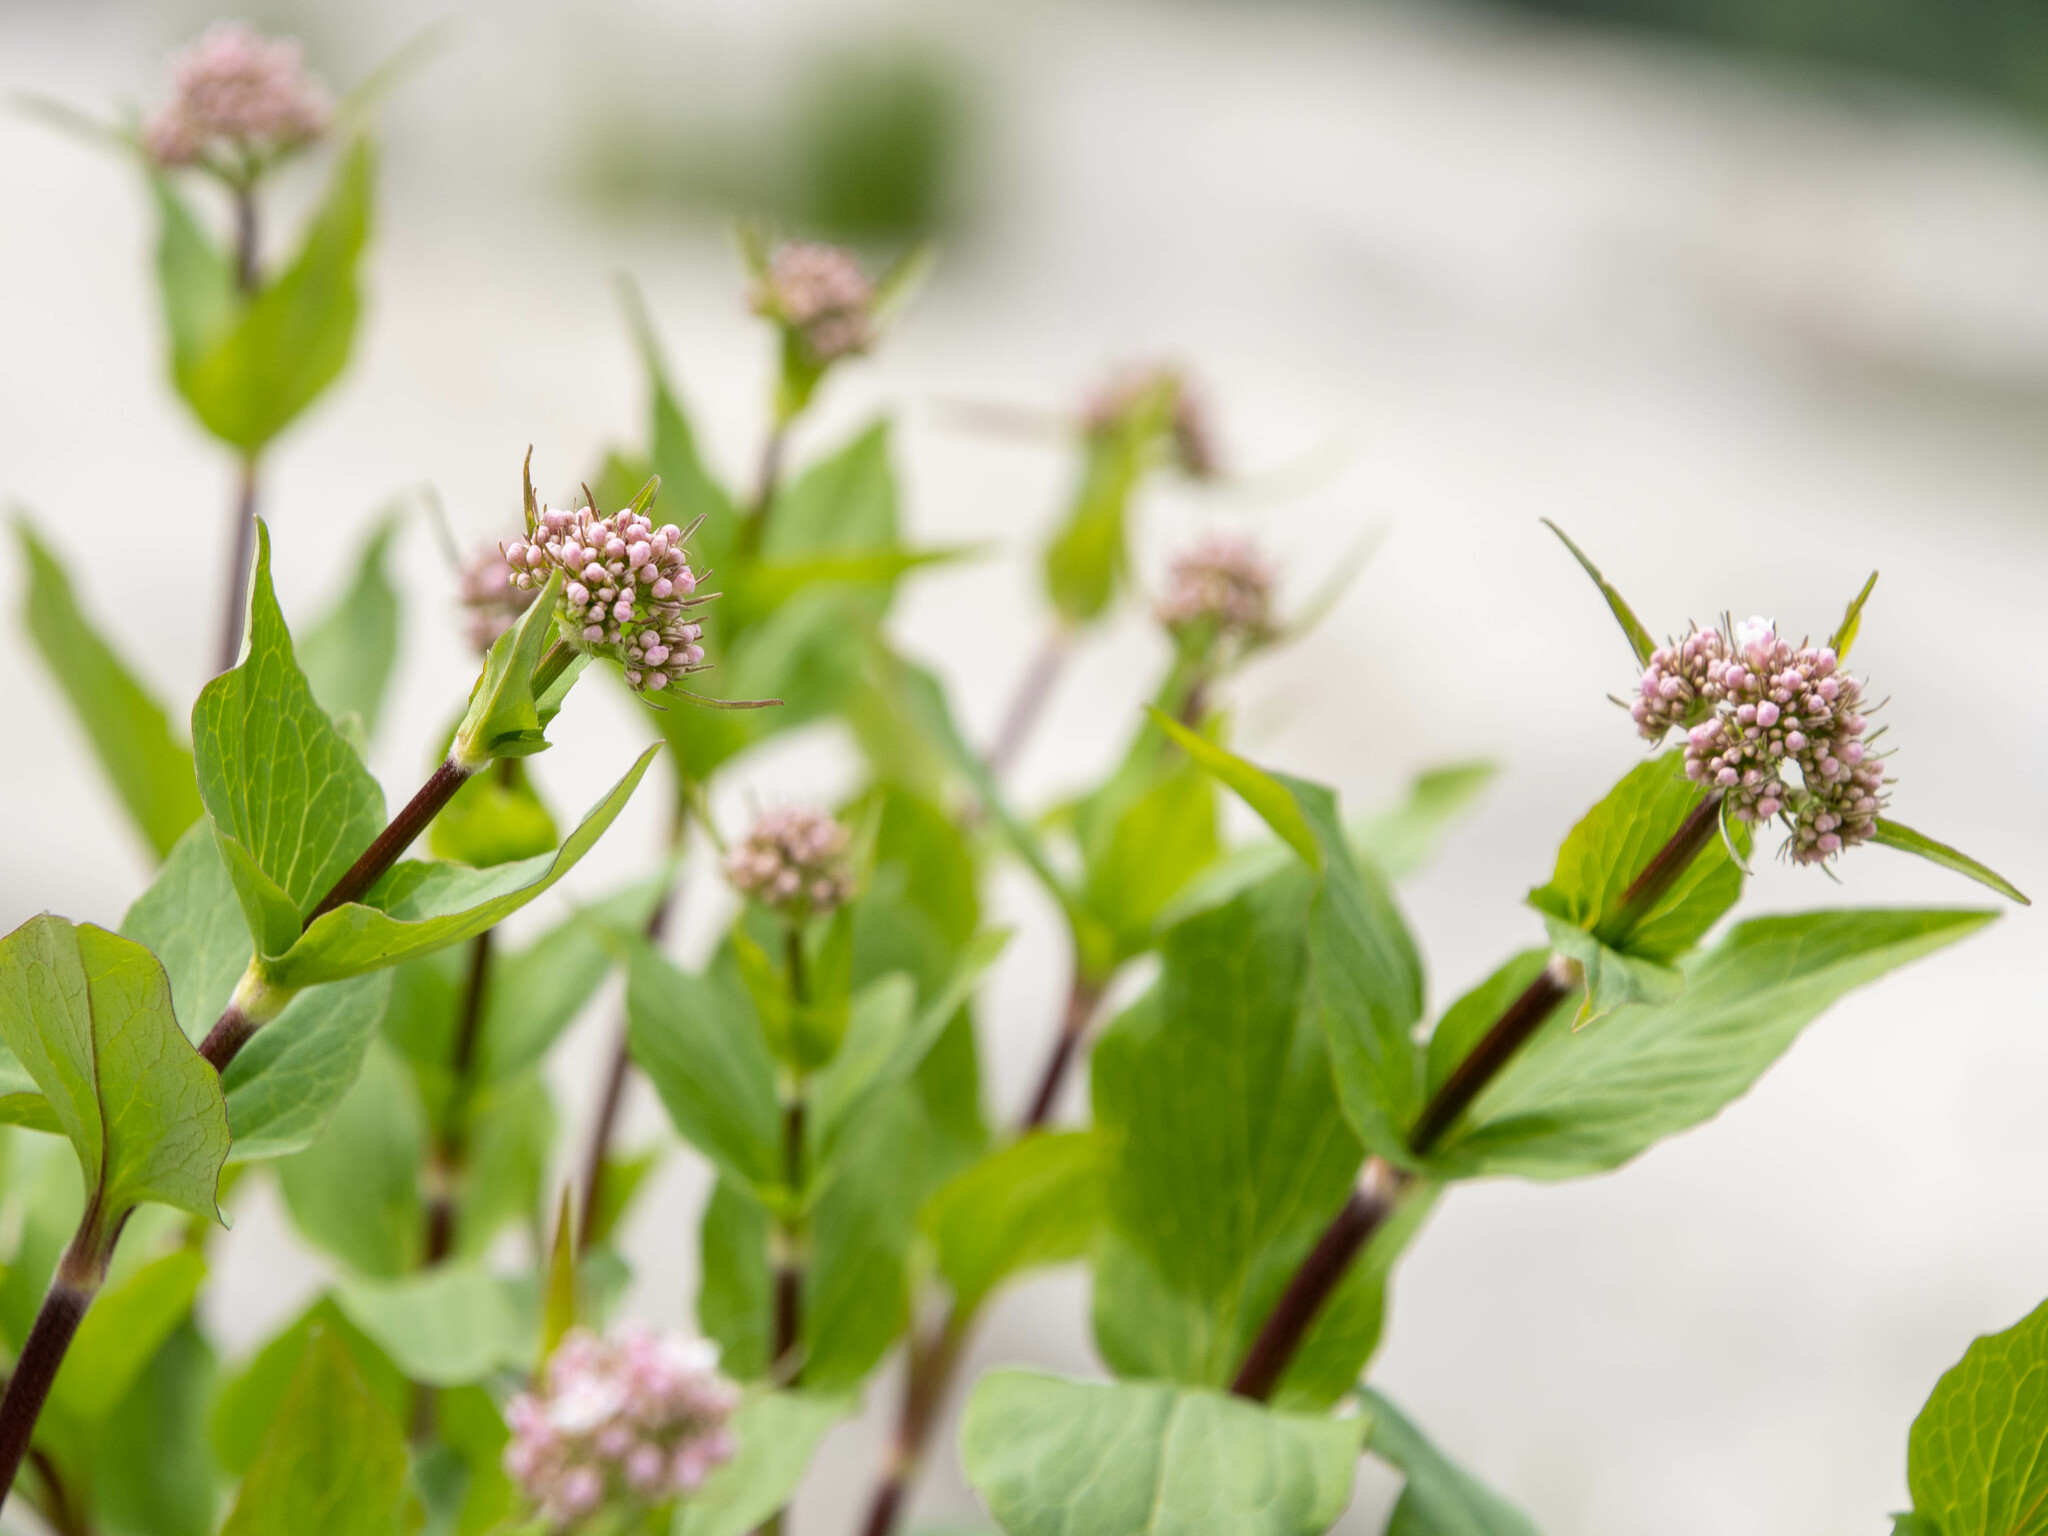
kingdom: Plantae
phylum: Tracheophyta
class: Magnoliopsida
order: Dipsacales
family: Caprifoliaceae
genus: Valeriana
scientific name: Valeriana montana
